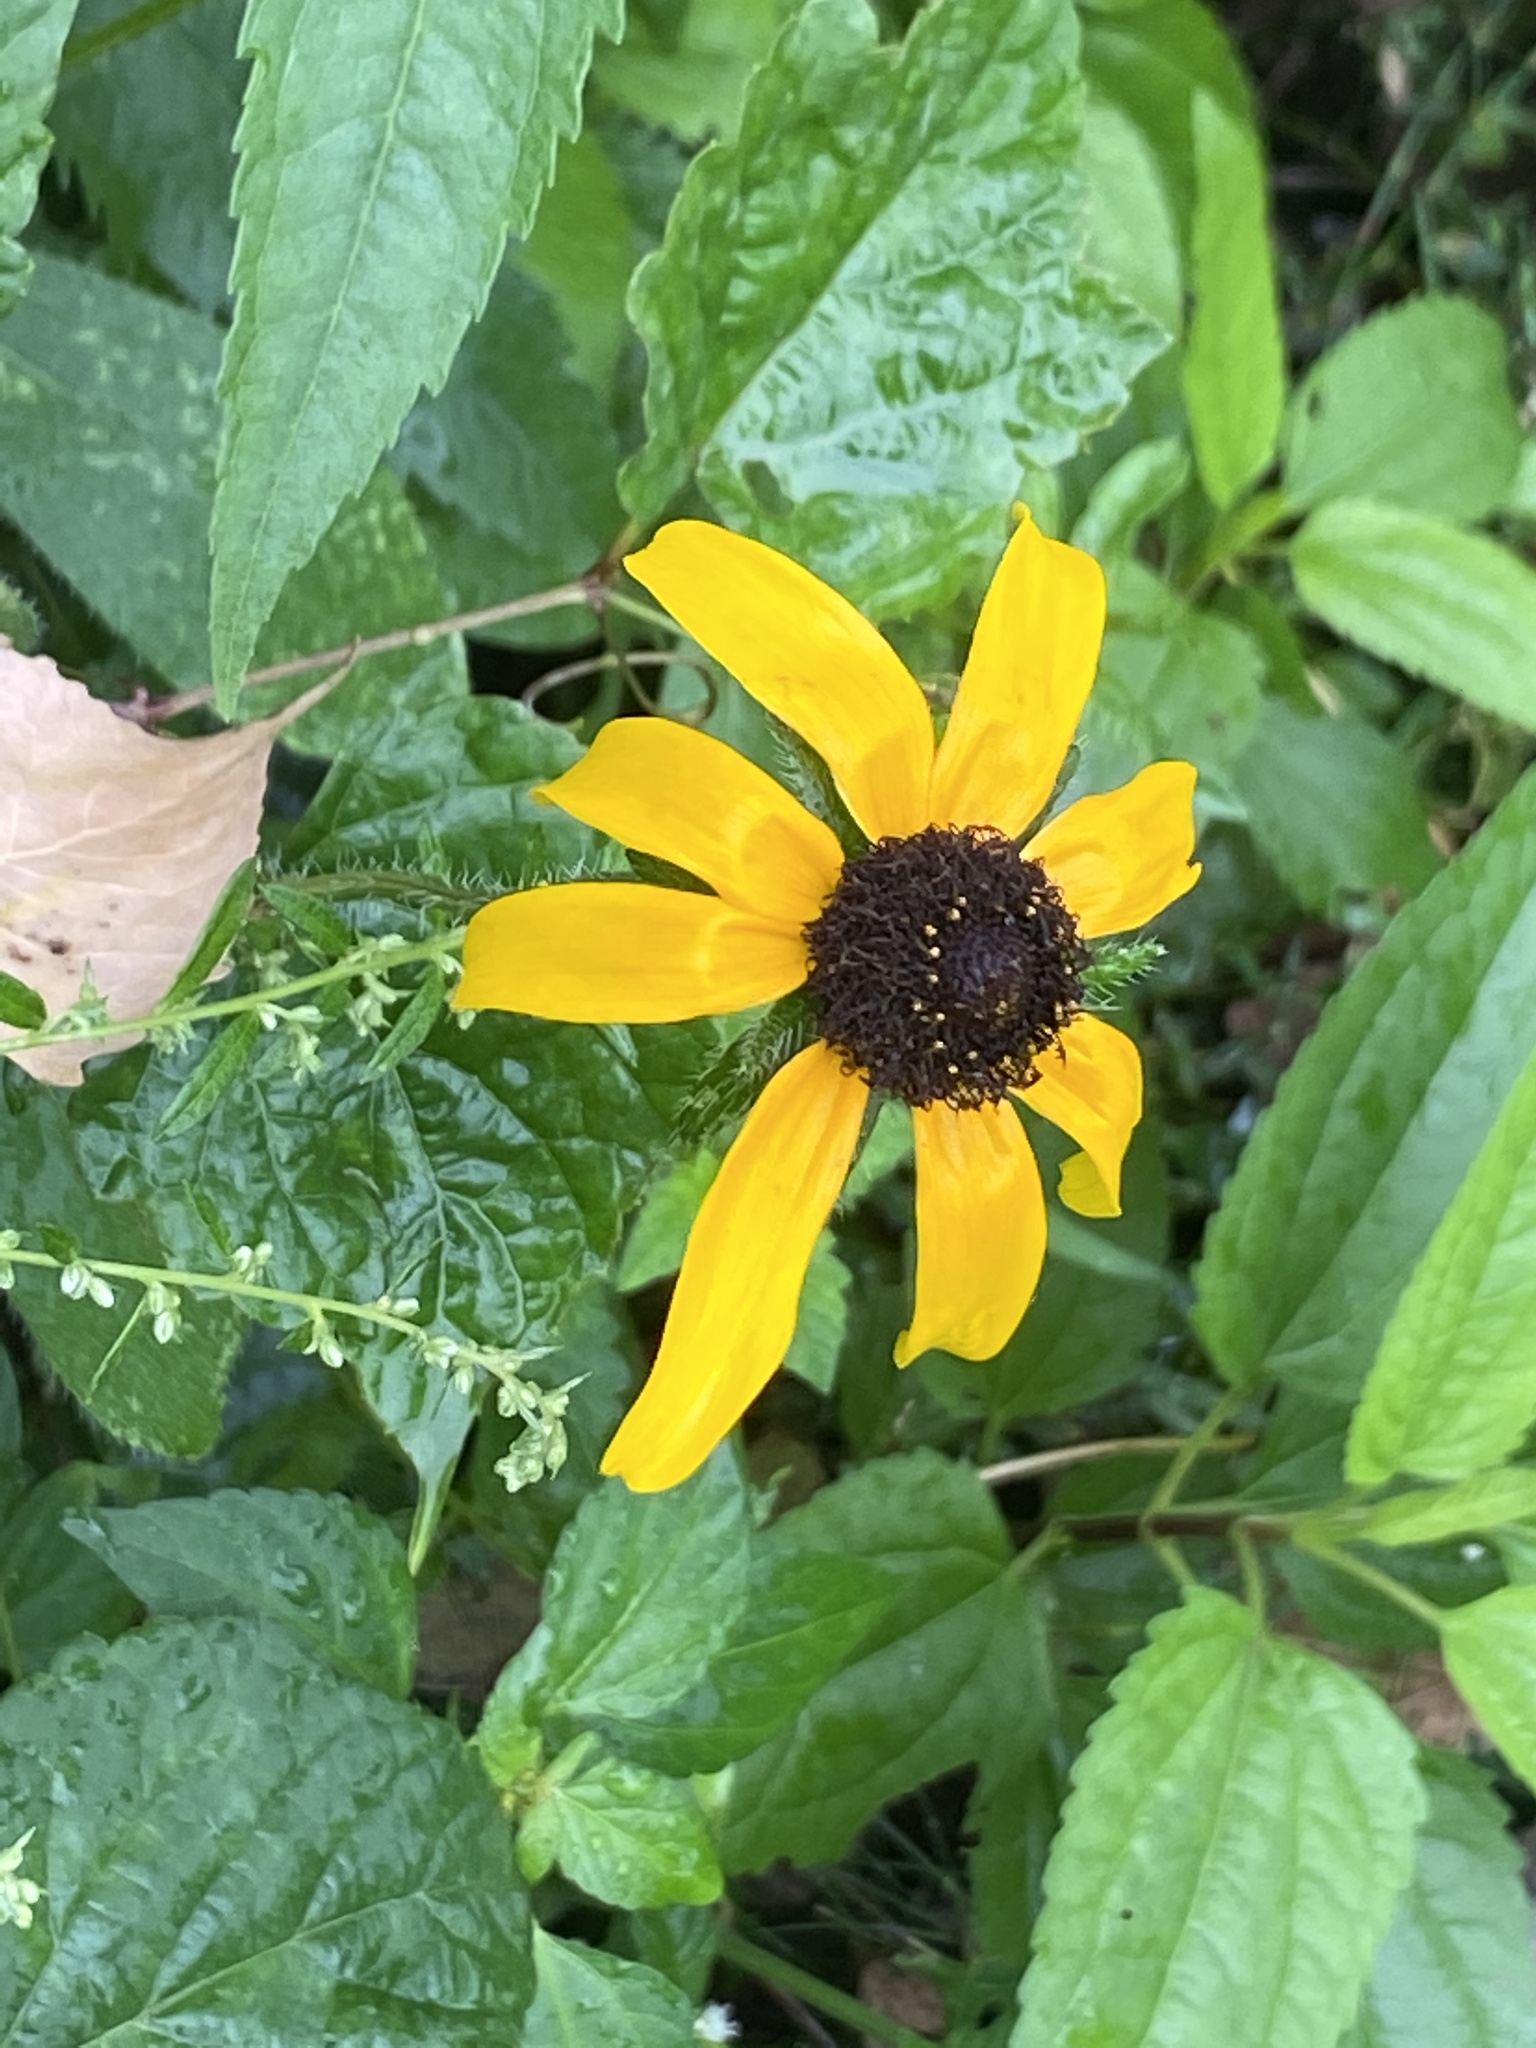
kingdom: Plantae
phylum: Tracheophyta
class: Magnoliopsida
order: Asterales
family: Asteraceae
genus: Rudbeckia
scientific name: Rudbeckia hirta
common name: Black-eyed-susan
